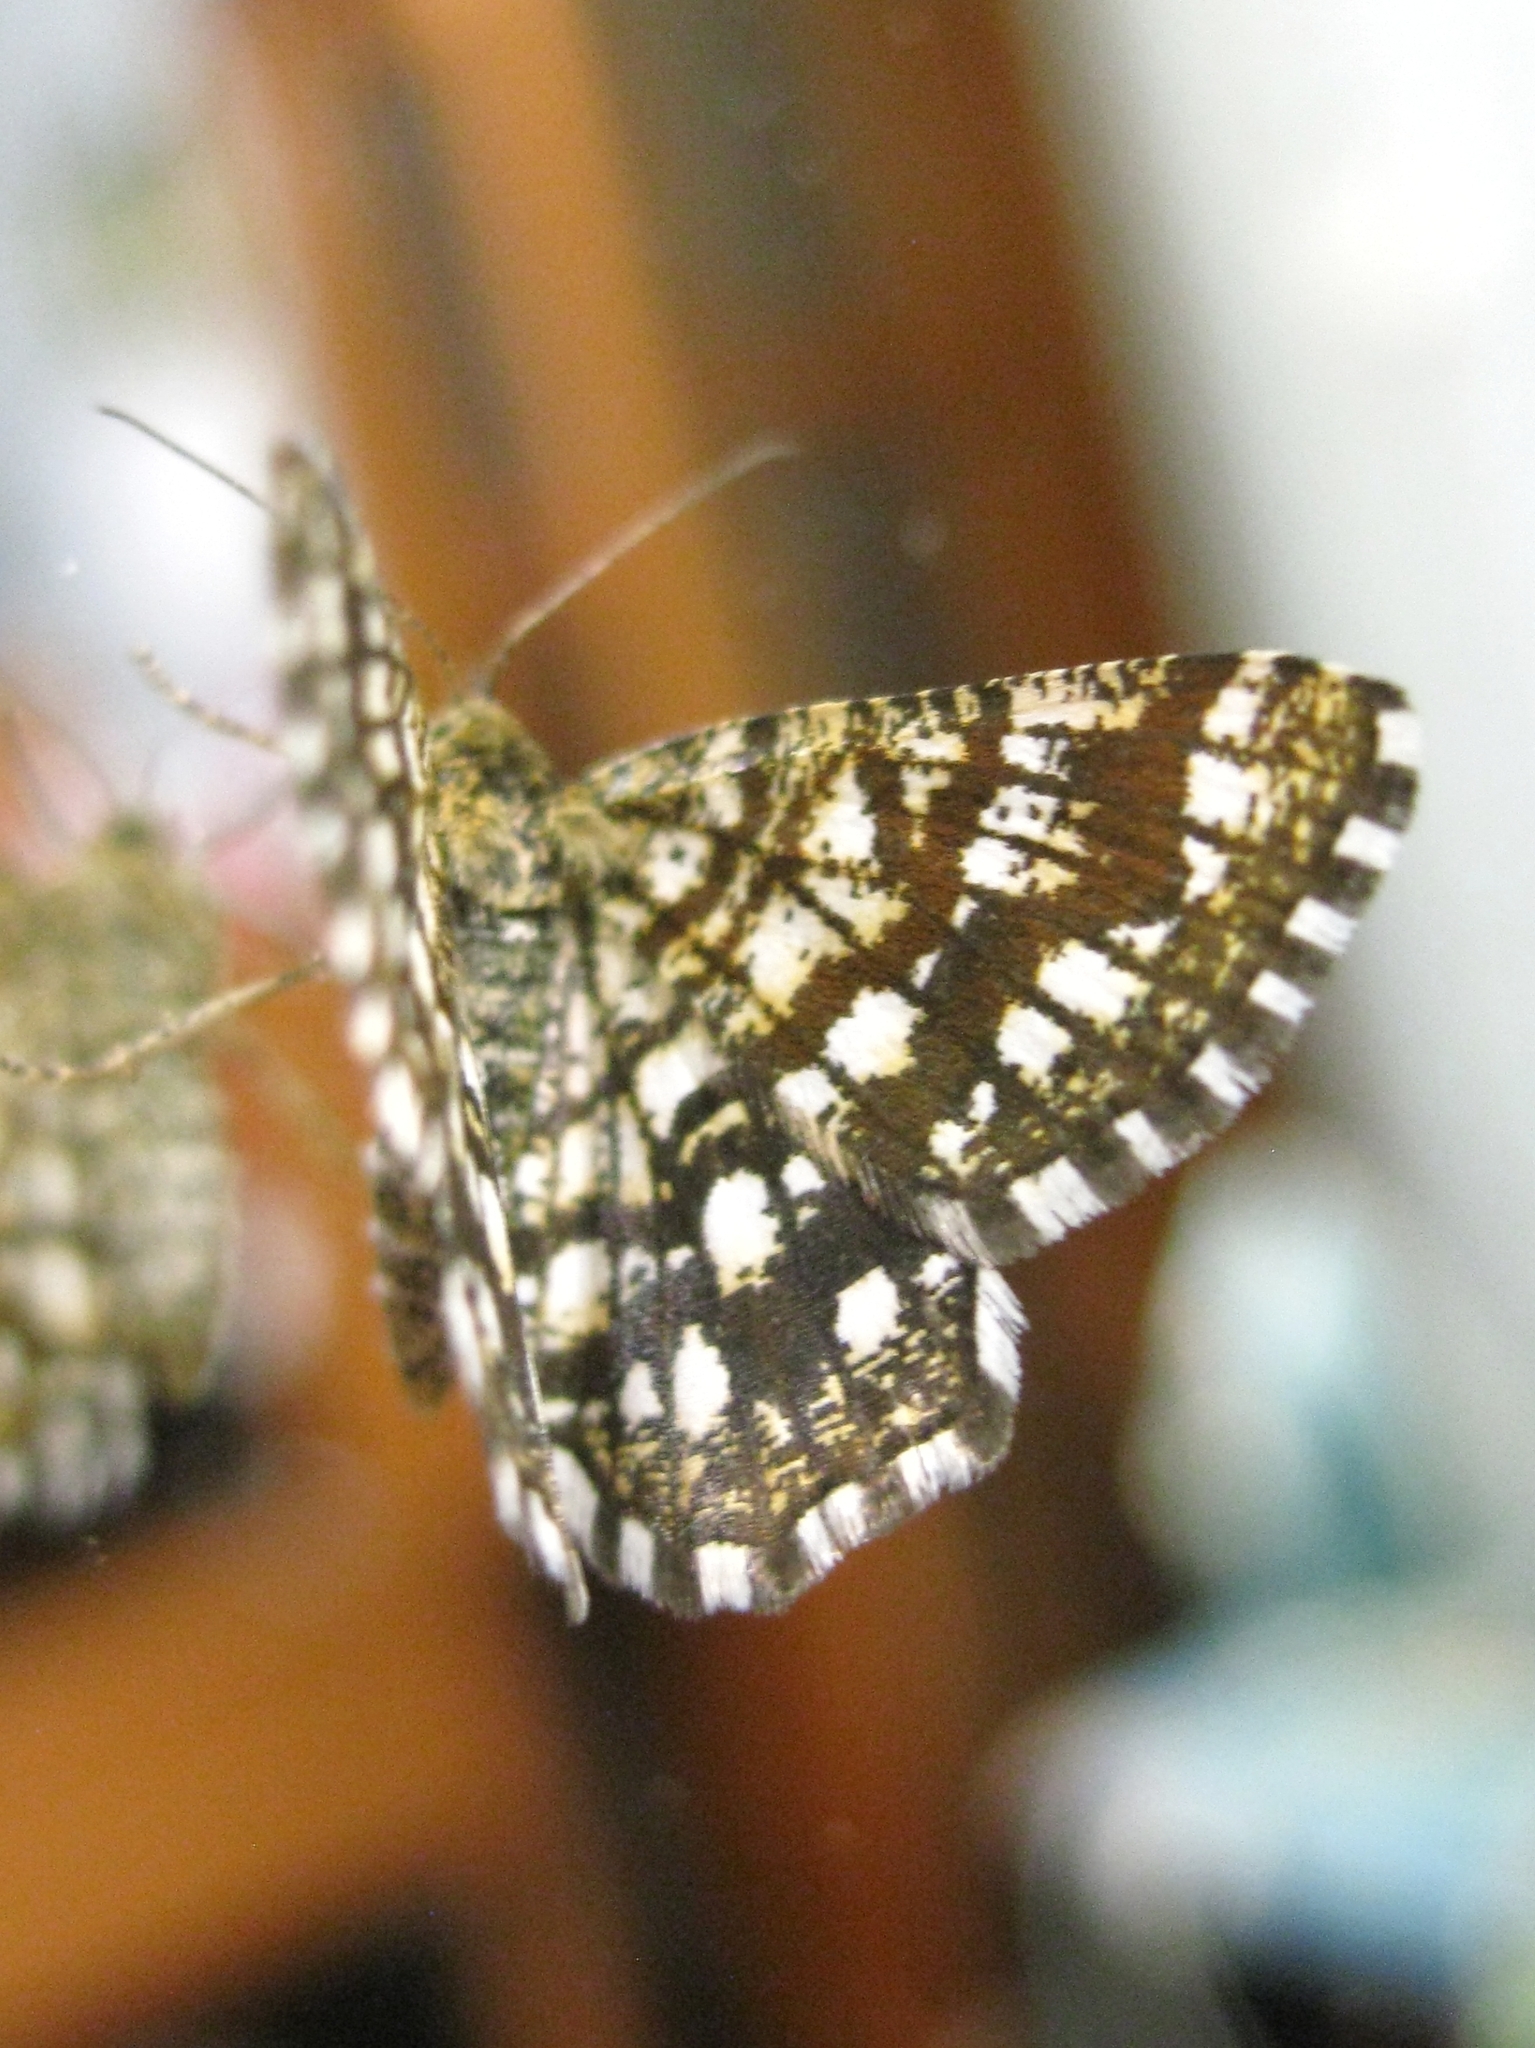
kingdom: Animalia
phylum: Arthropoda
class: Insecta
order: Lepidoptera
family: Geometridae
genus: Chiasmia
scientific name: Chiasmia clathrata
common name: Latticed heath
